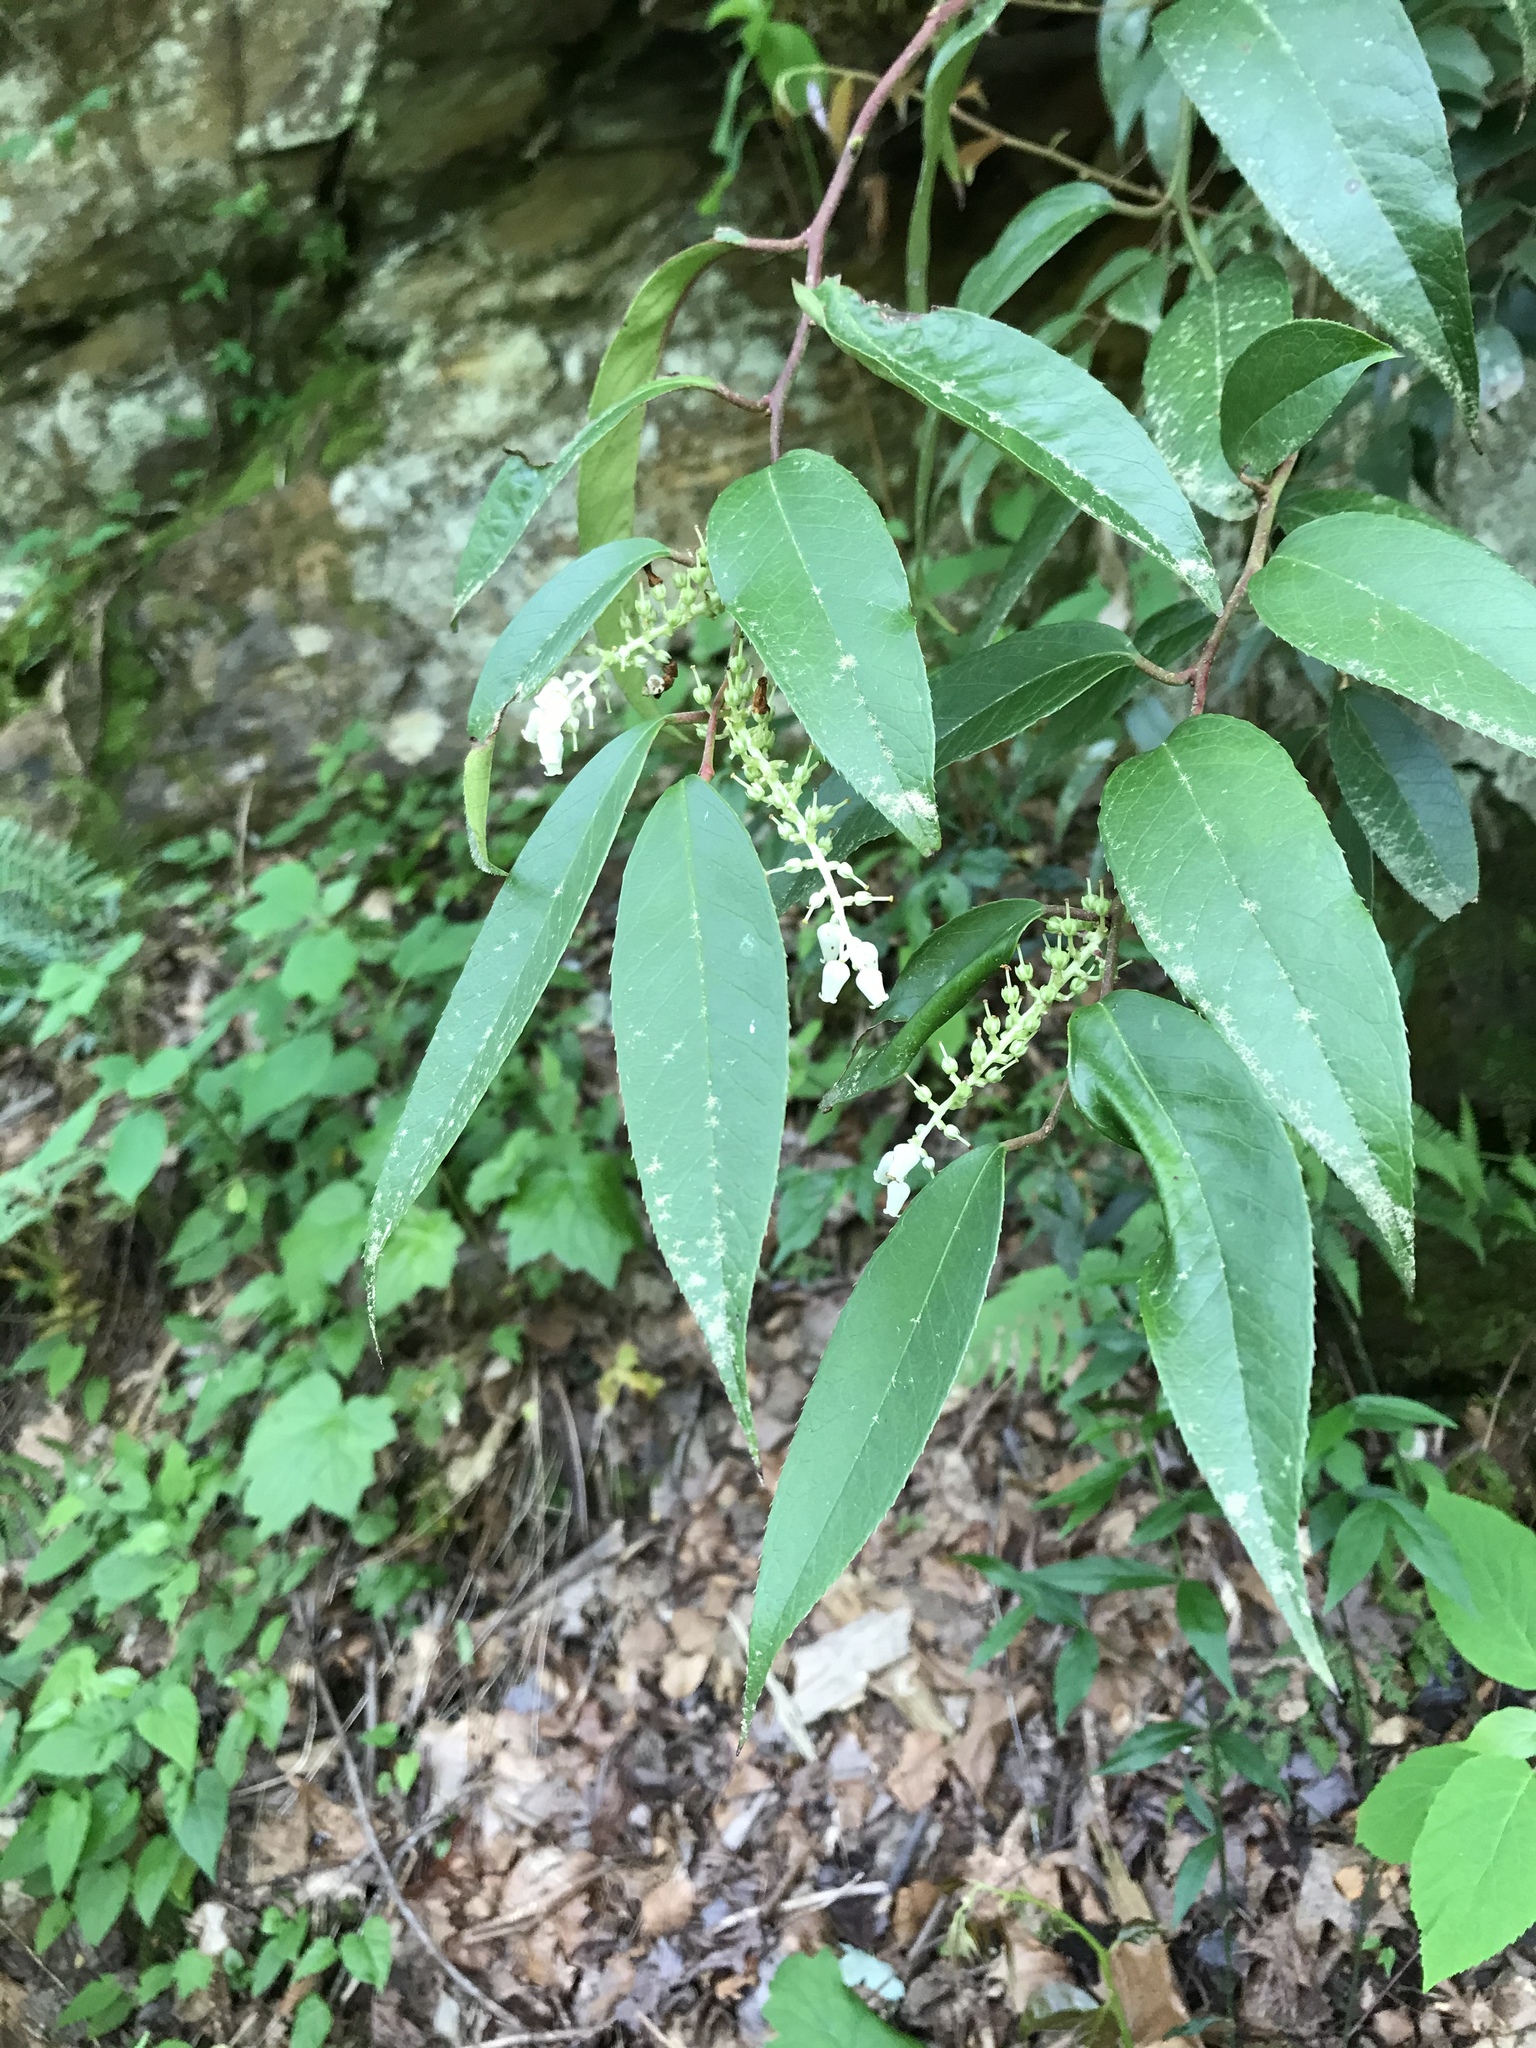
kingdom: Plantae
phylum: Tracheophyta
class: Magnoliopsida
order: Ericales
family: Ericaceae
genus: Leucothoe
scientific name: Leucothoe fontanesiana
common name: Fetterbush
